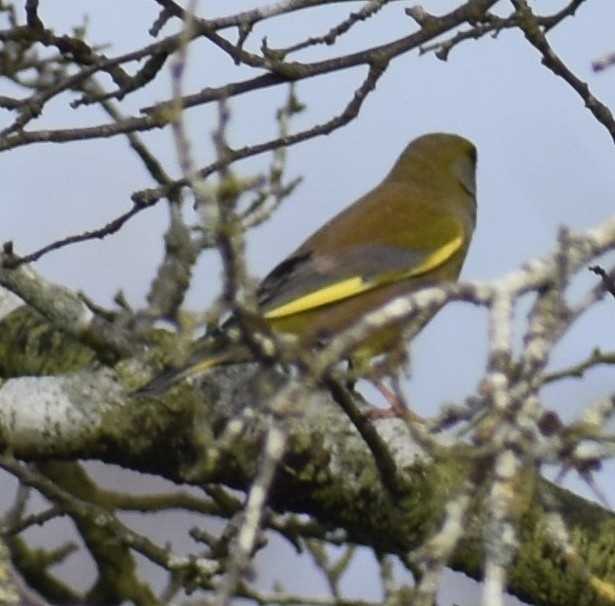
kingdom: Plantae
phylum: Tracheophyta
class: Liliopsida
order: Poales
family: Poaceae
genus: Chloris
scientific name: Chloris chloris
